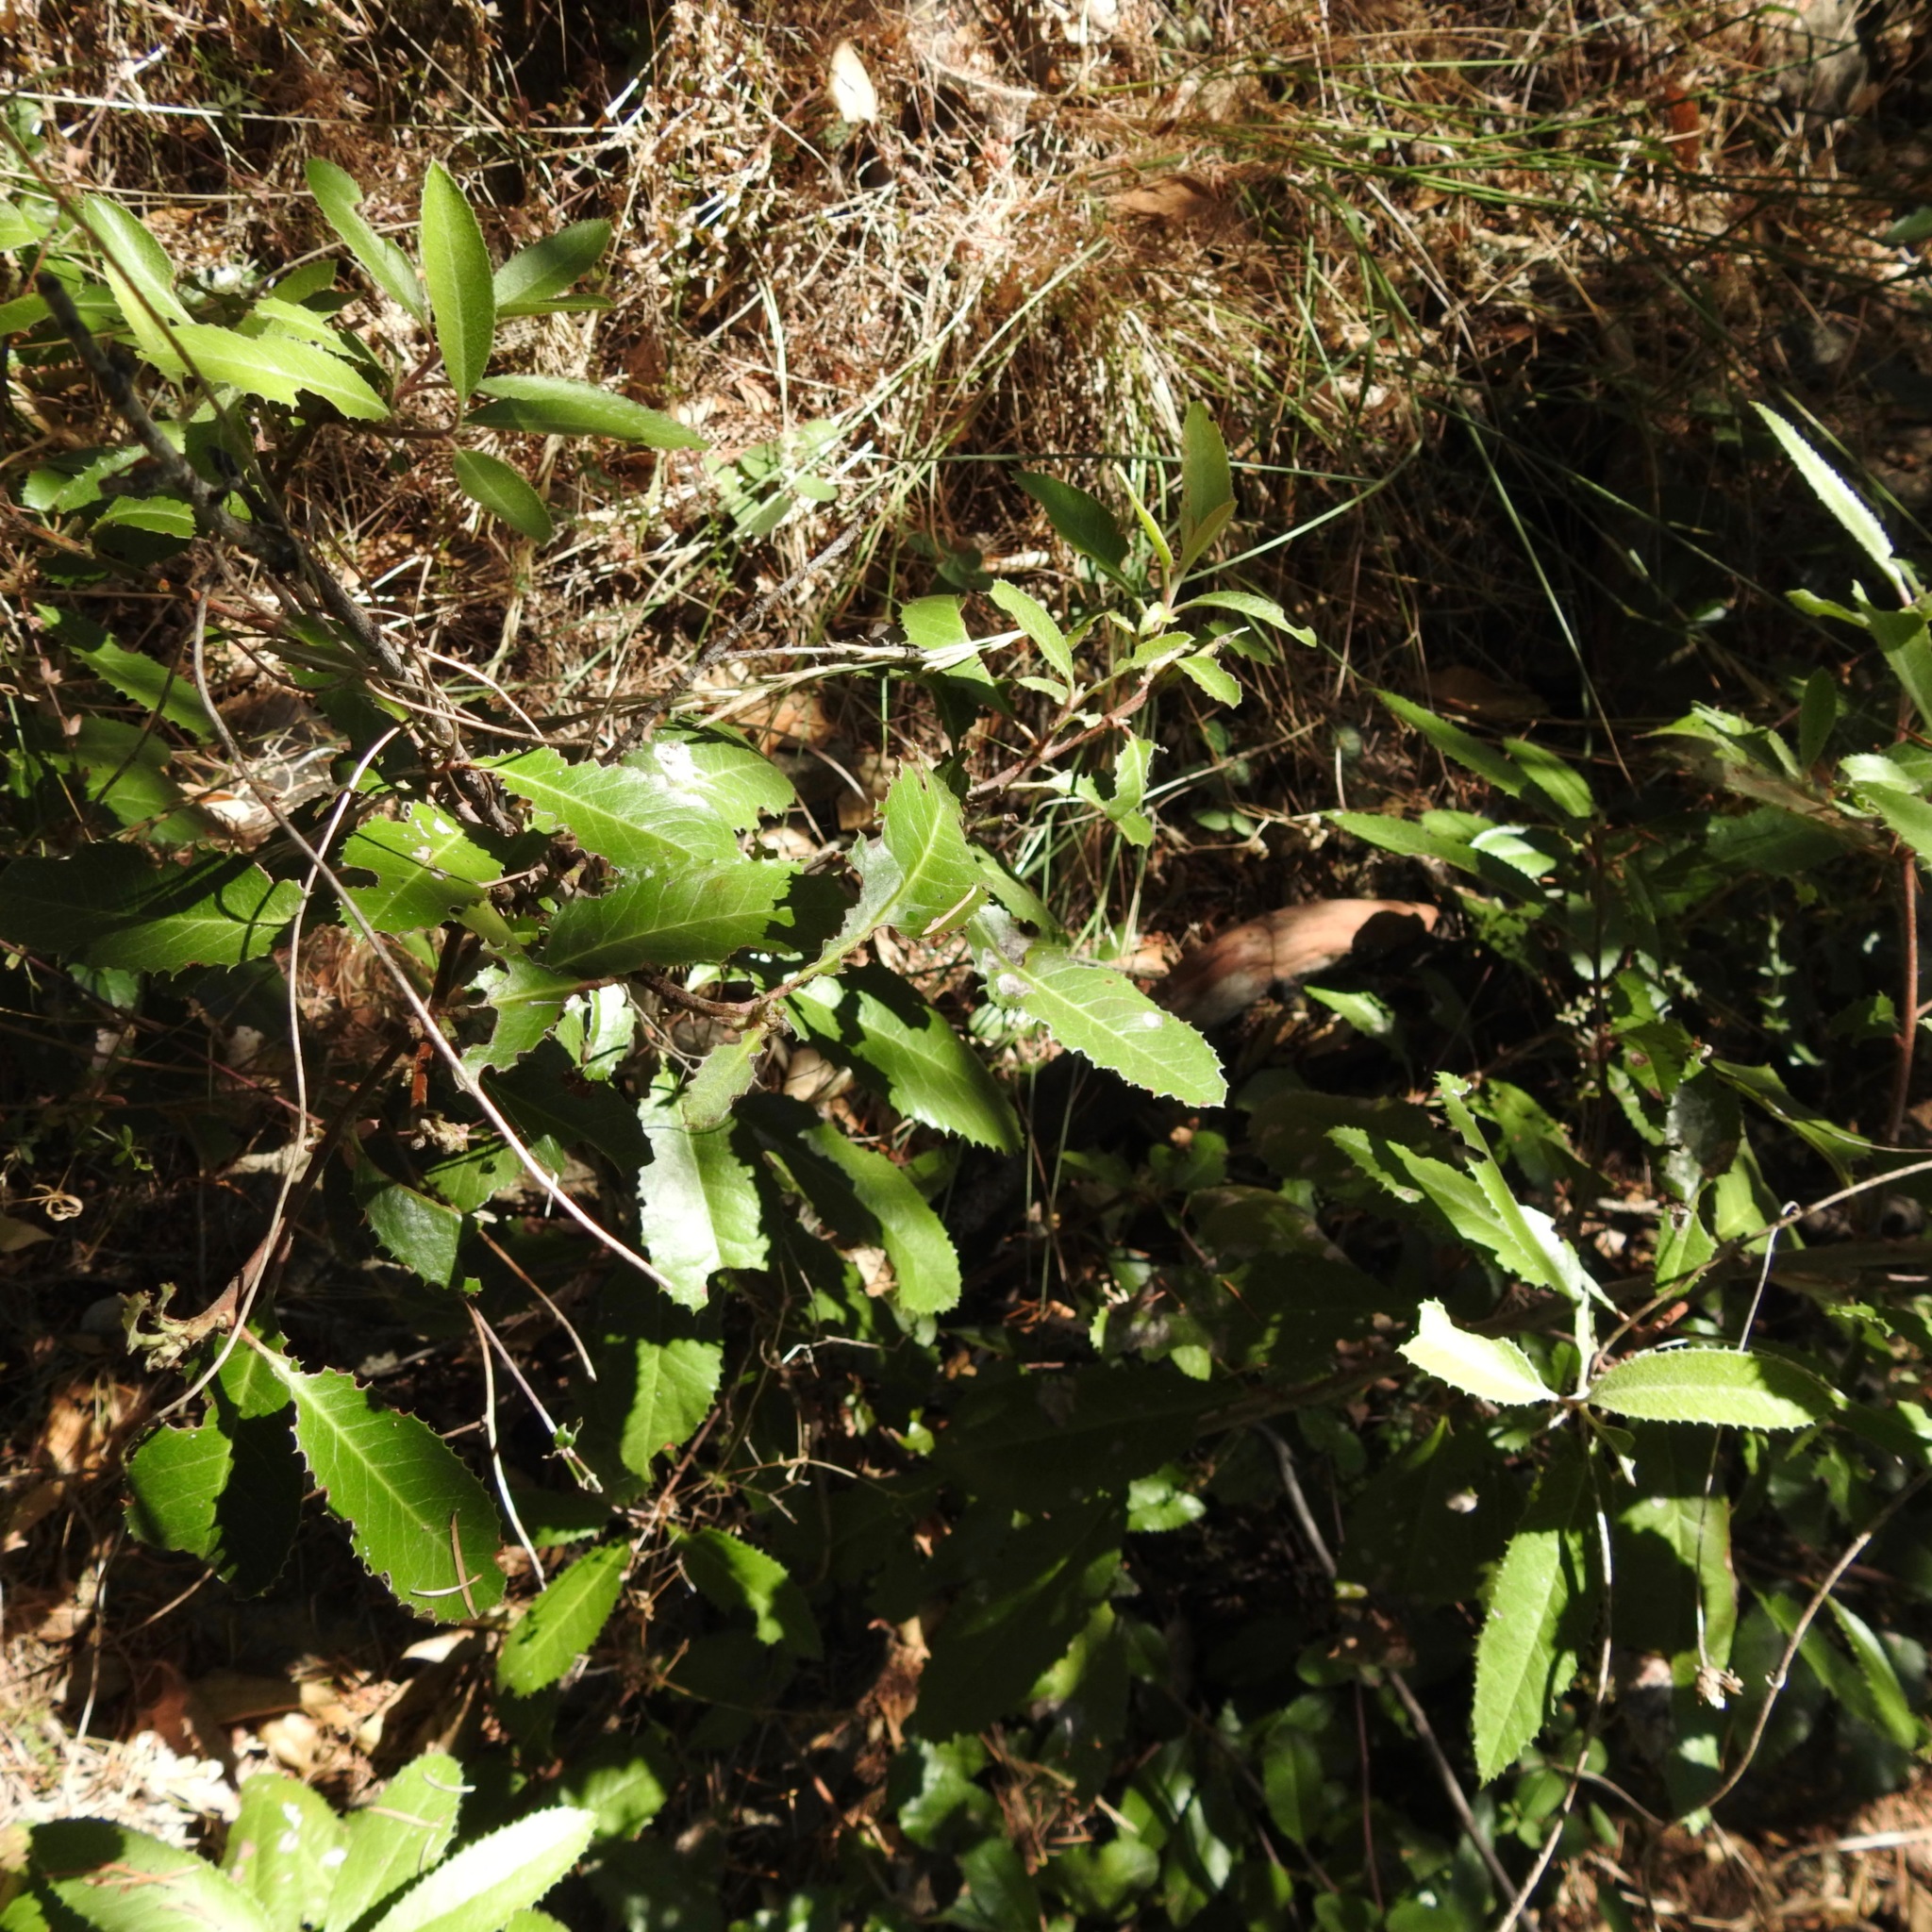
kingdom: Plantae
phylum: Tracheophyta
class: Magnoliopsida
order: Rosales
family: Rosaceae
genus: Heteromeles
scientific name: Heteromeles arbutifolia
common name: California-holly
